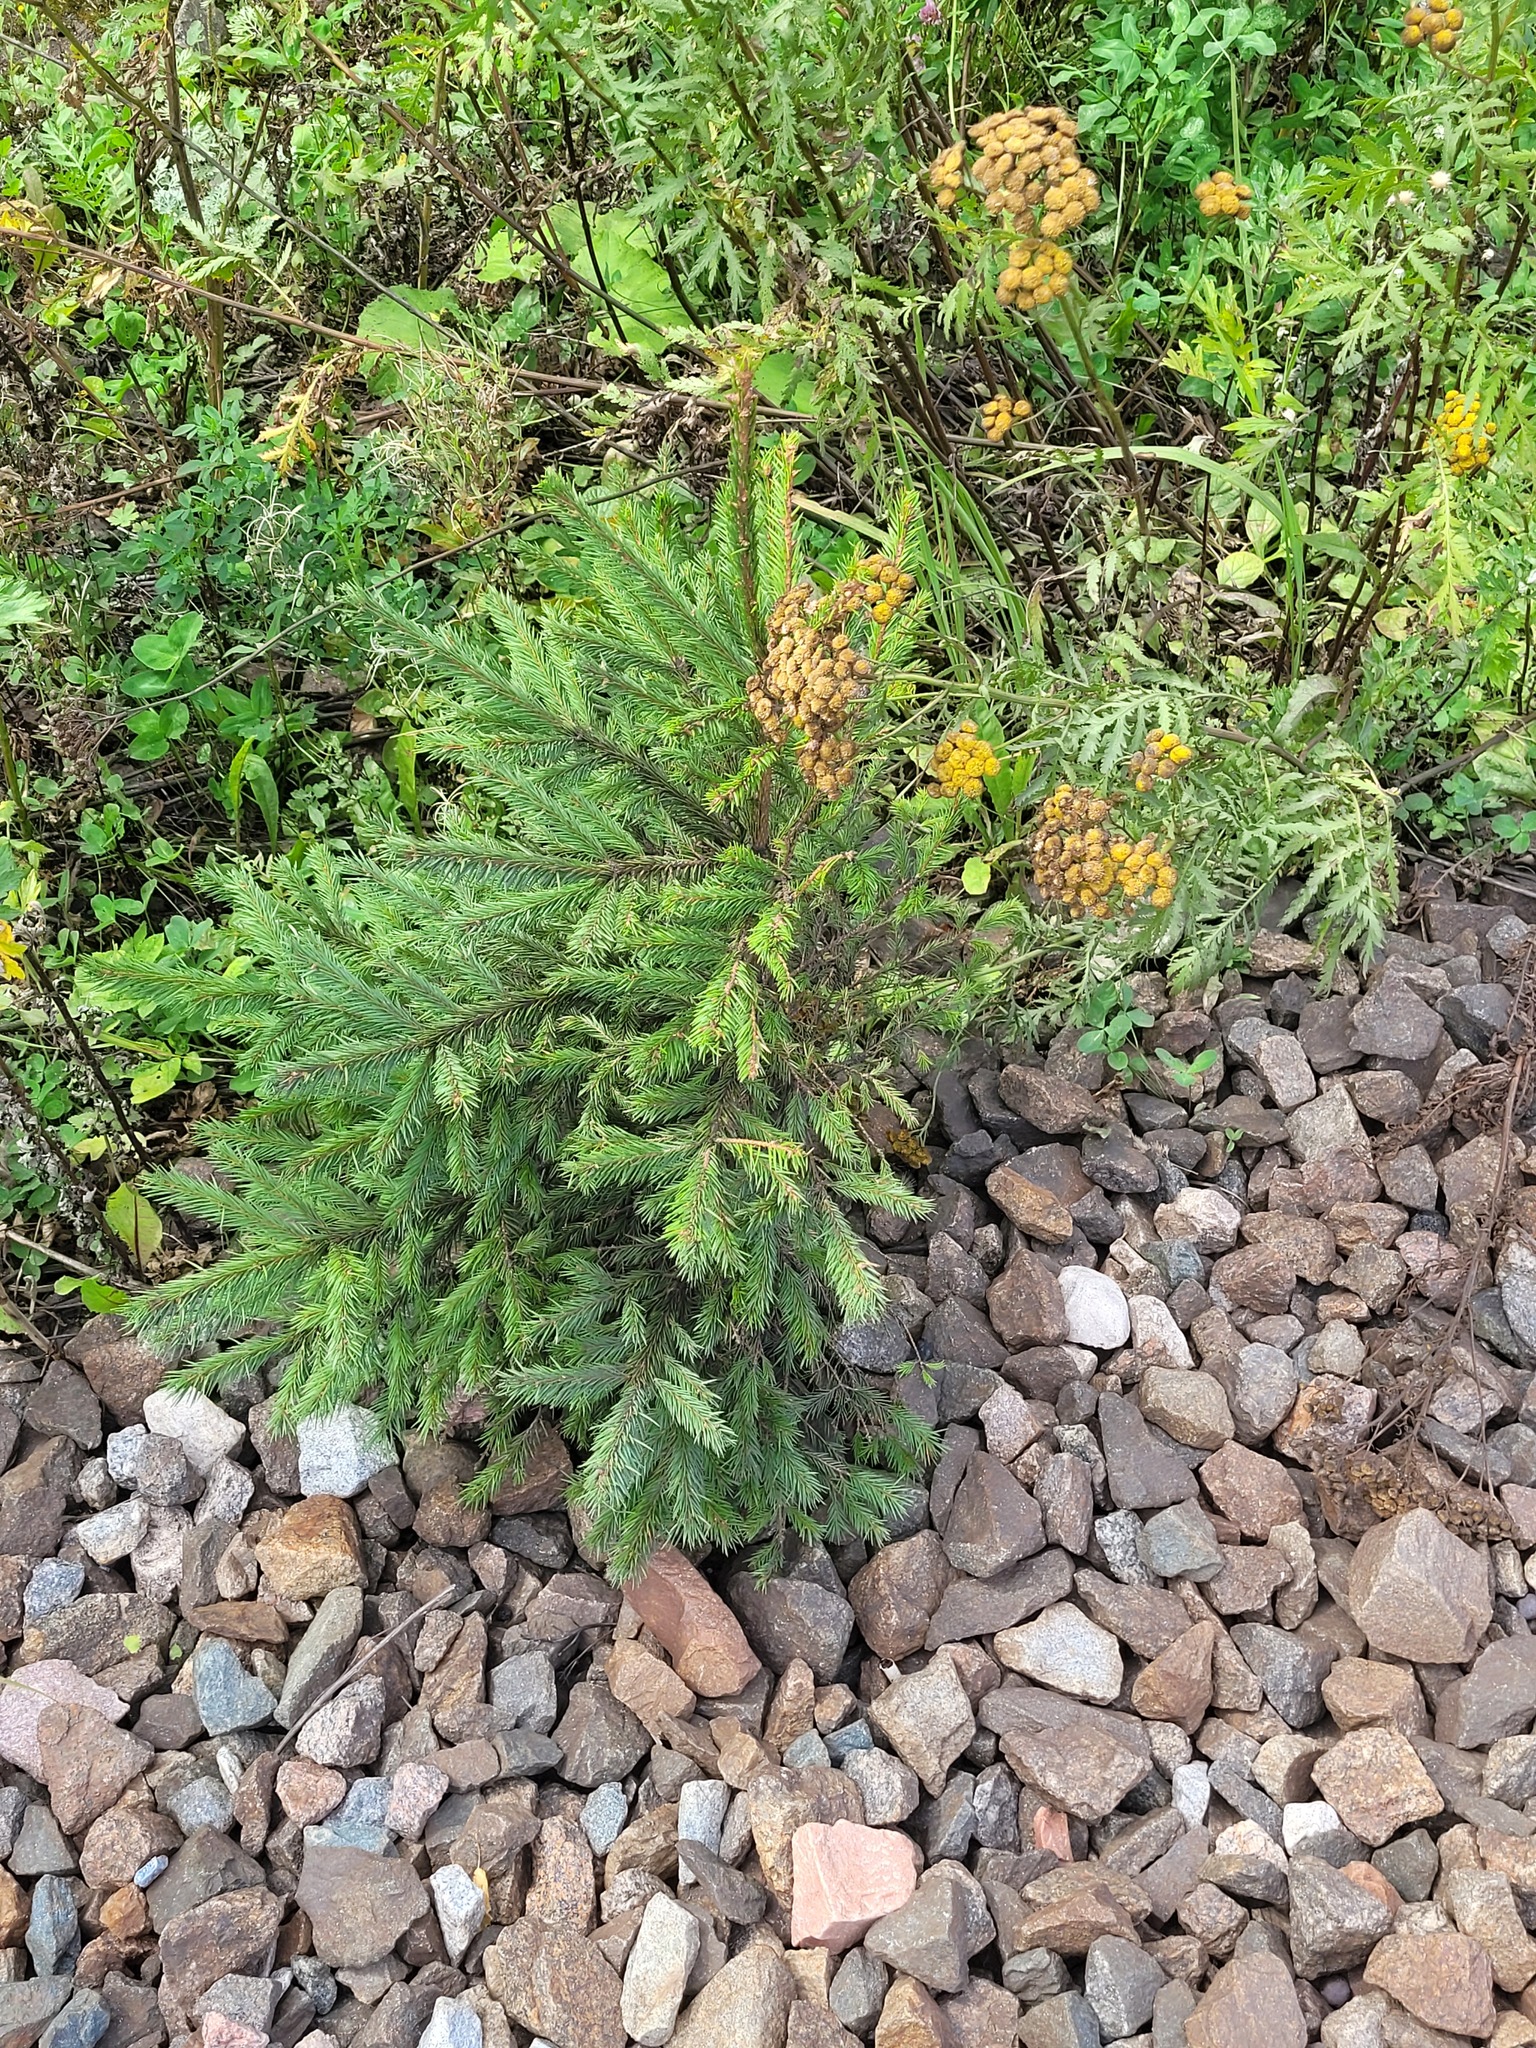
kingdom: Plantae
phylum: Tracheophyta
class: Pinopsida
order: Pinales
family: Pinaceae
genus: Picea
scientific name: Picea abies
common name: Norway spruce
